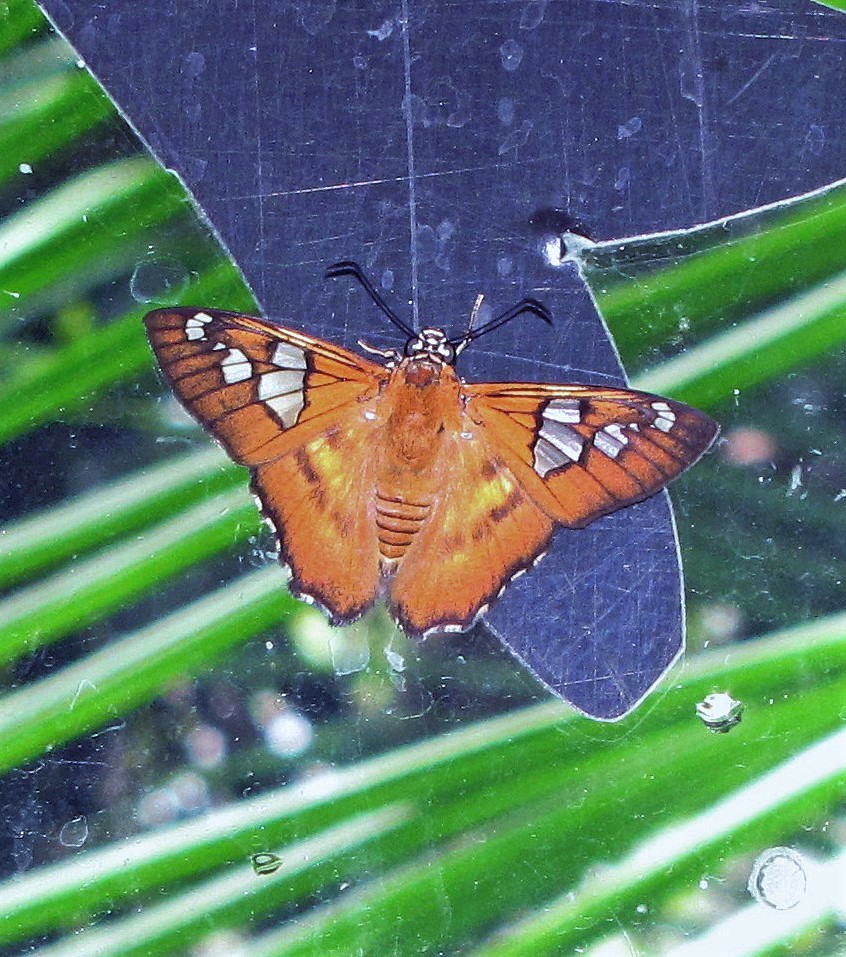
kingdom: Animalia
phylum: Arthropoda
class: Insecta
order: Lepidoptera
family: Hesperiidae
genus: Myscelus
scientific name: Myscelus epimachia
